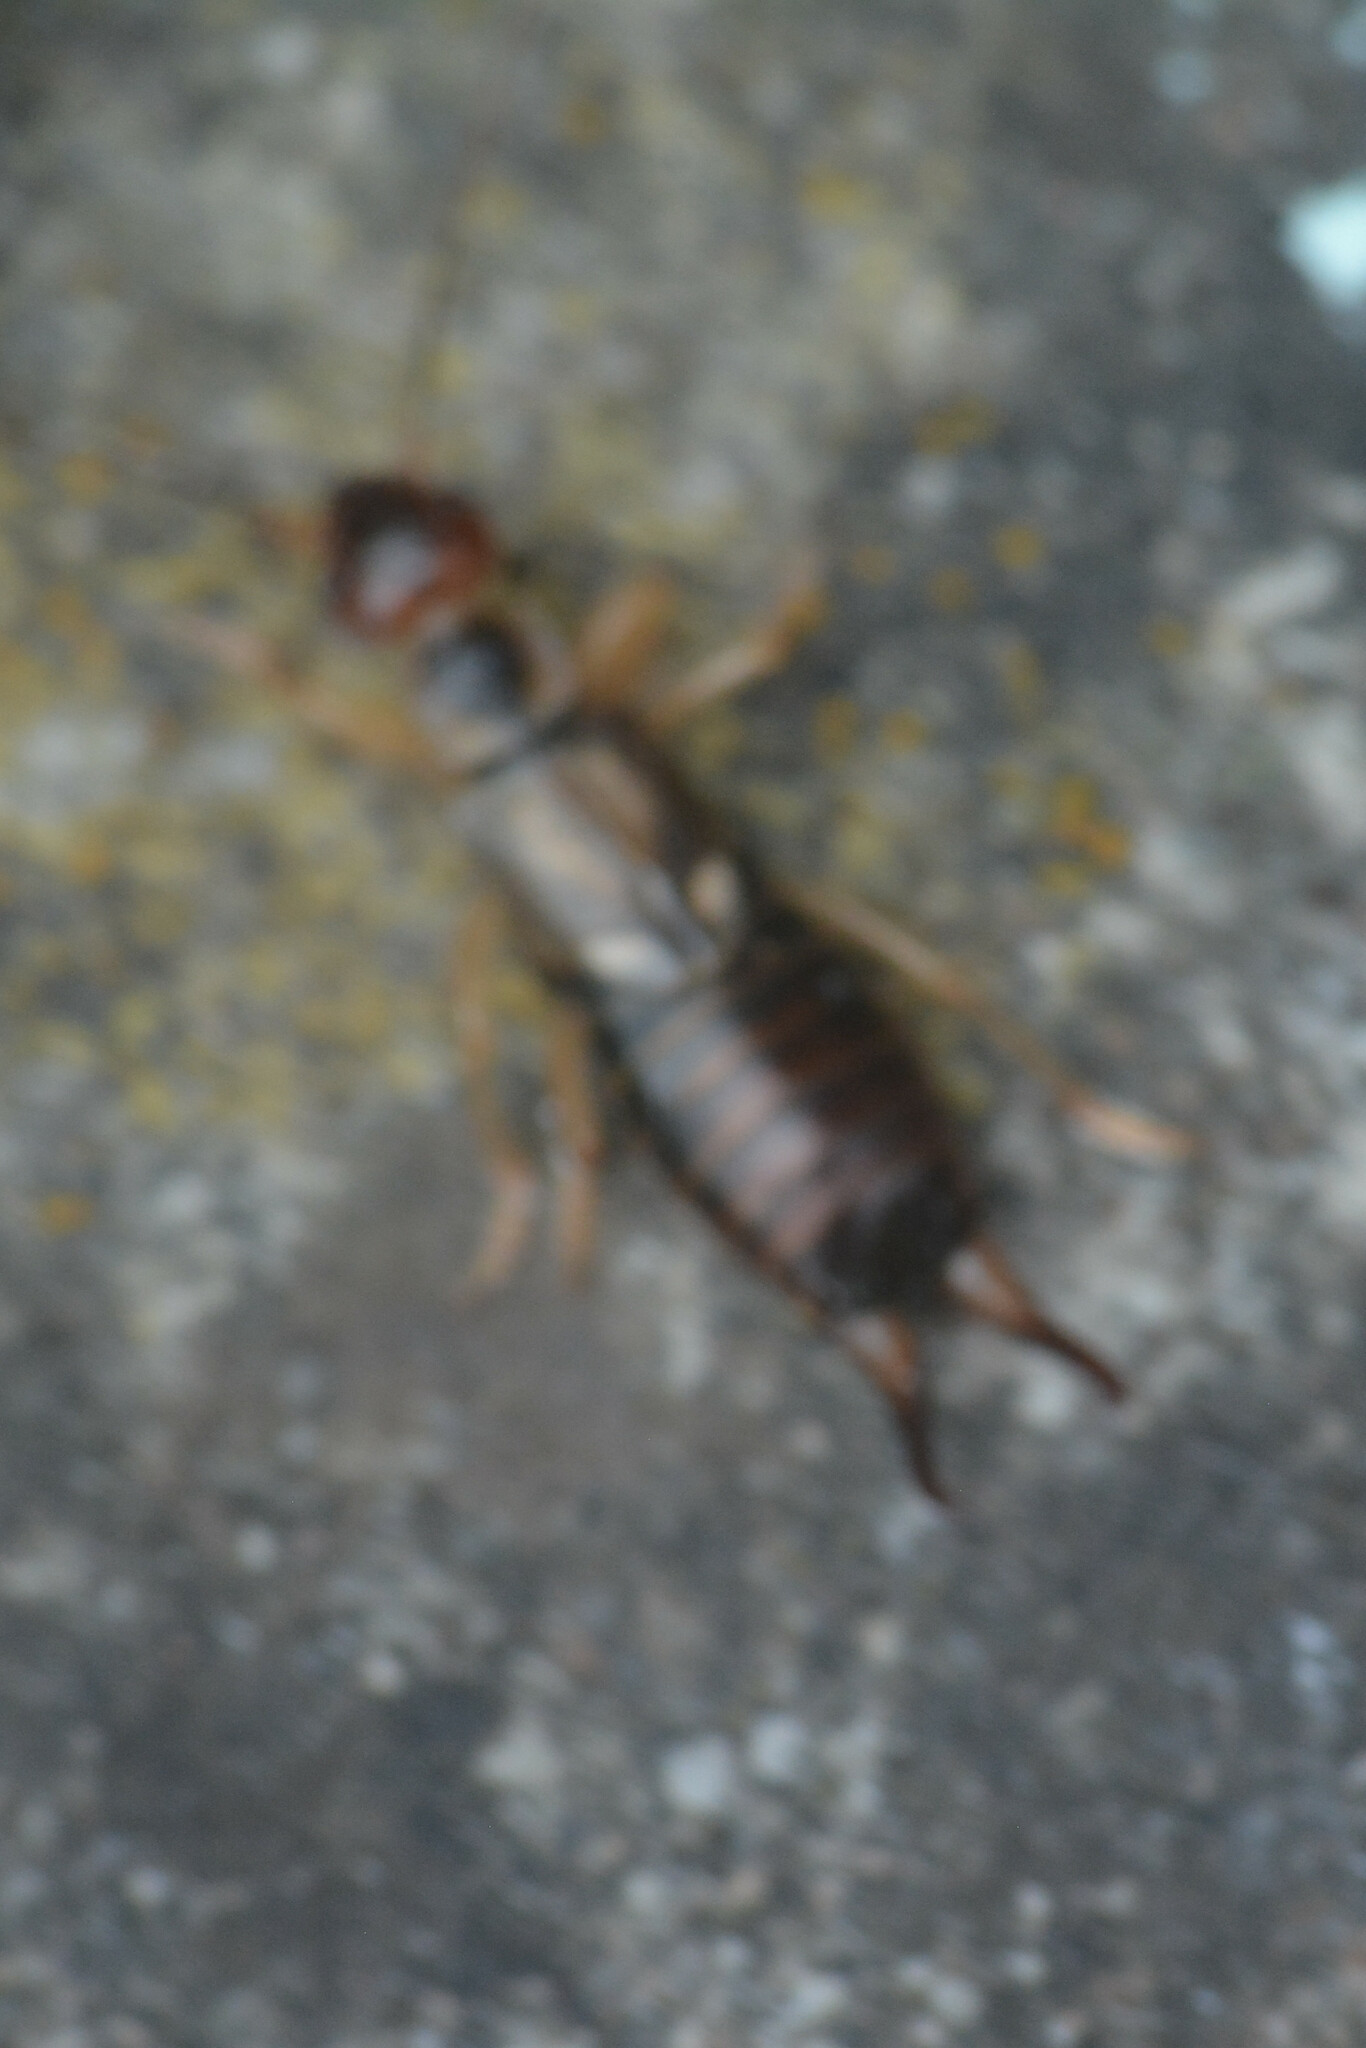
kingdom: Animalia
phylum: Arthropoda
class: Insecta
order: Dermaptera
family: Forficulidae
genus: Forficula
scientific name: Forficula
